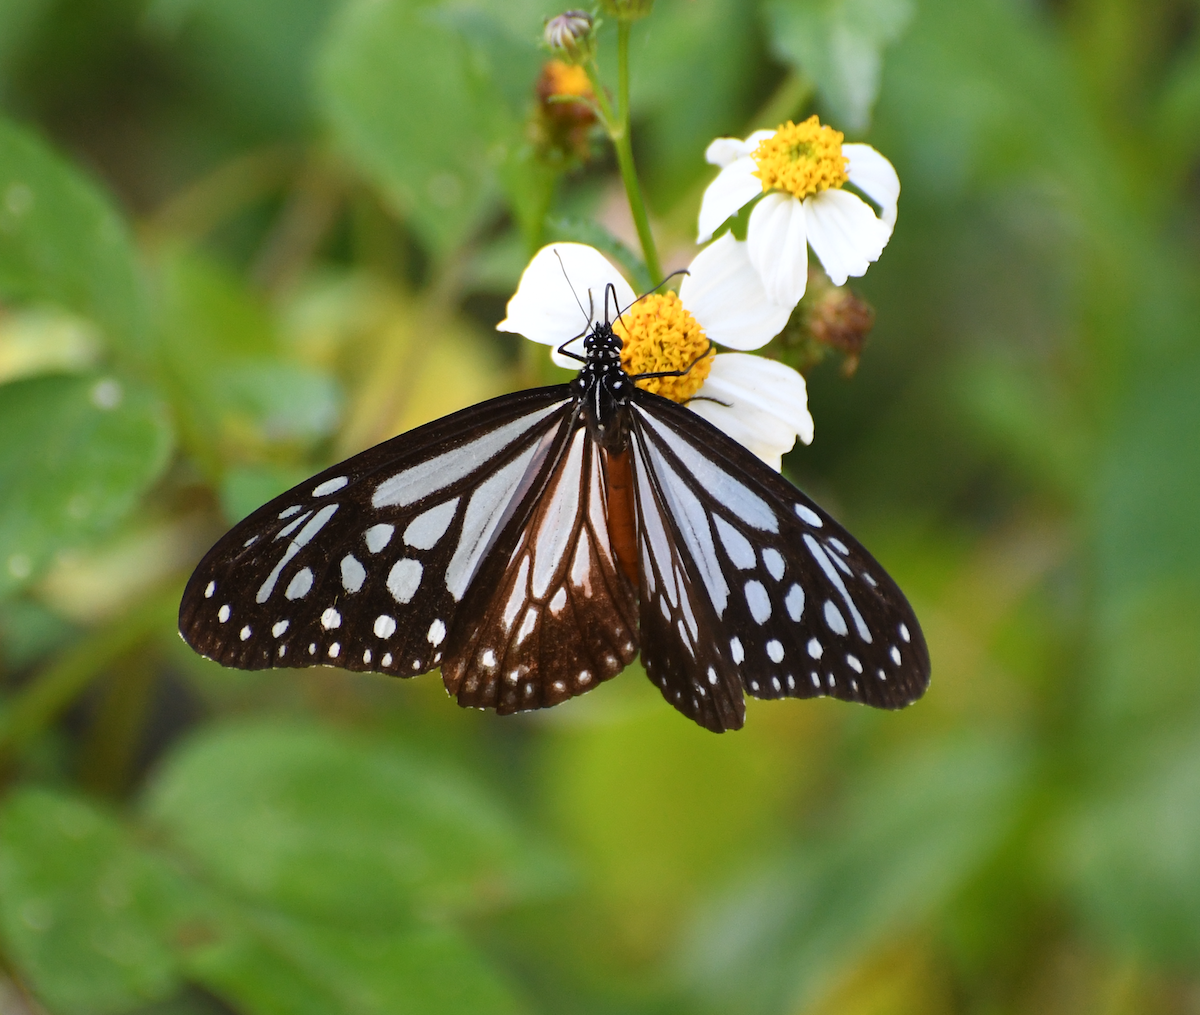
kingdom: Animalia
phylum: Arthropoda
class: Insecta
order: Lepidoptera
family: Nymphalidae
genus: Parantica
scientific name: Parantica melaneus
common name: Chocolate tiger
